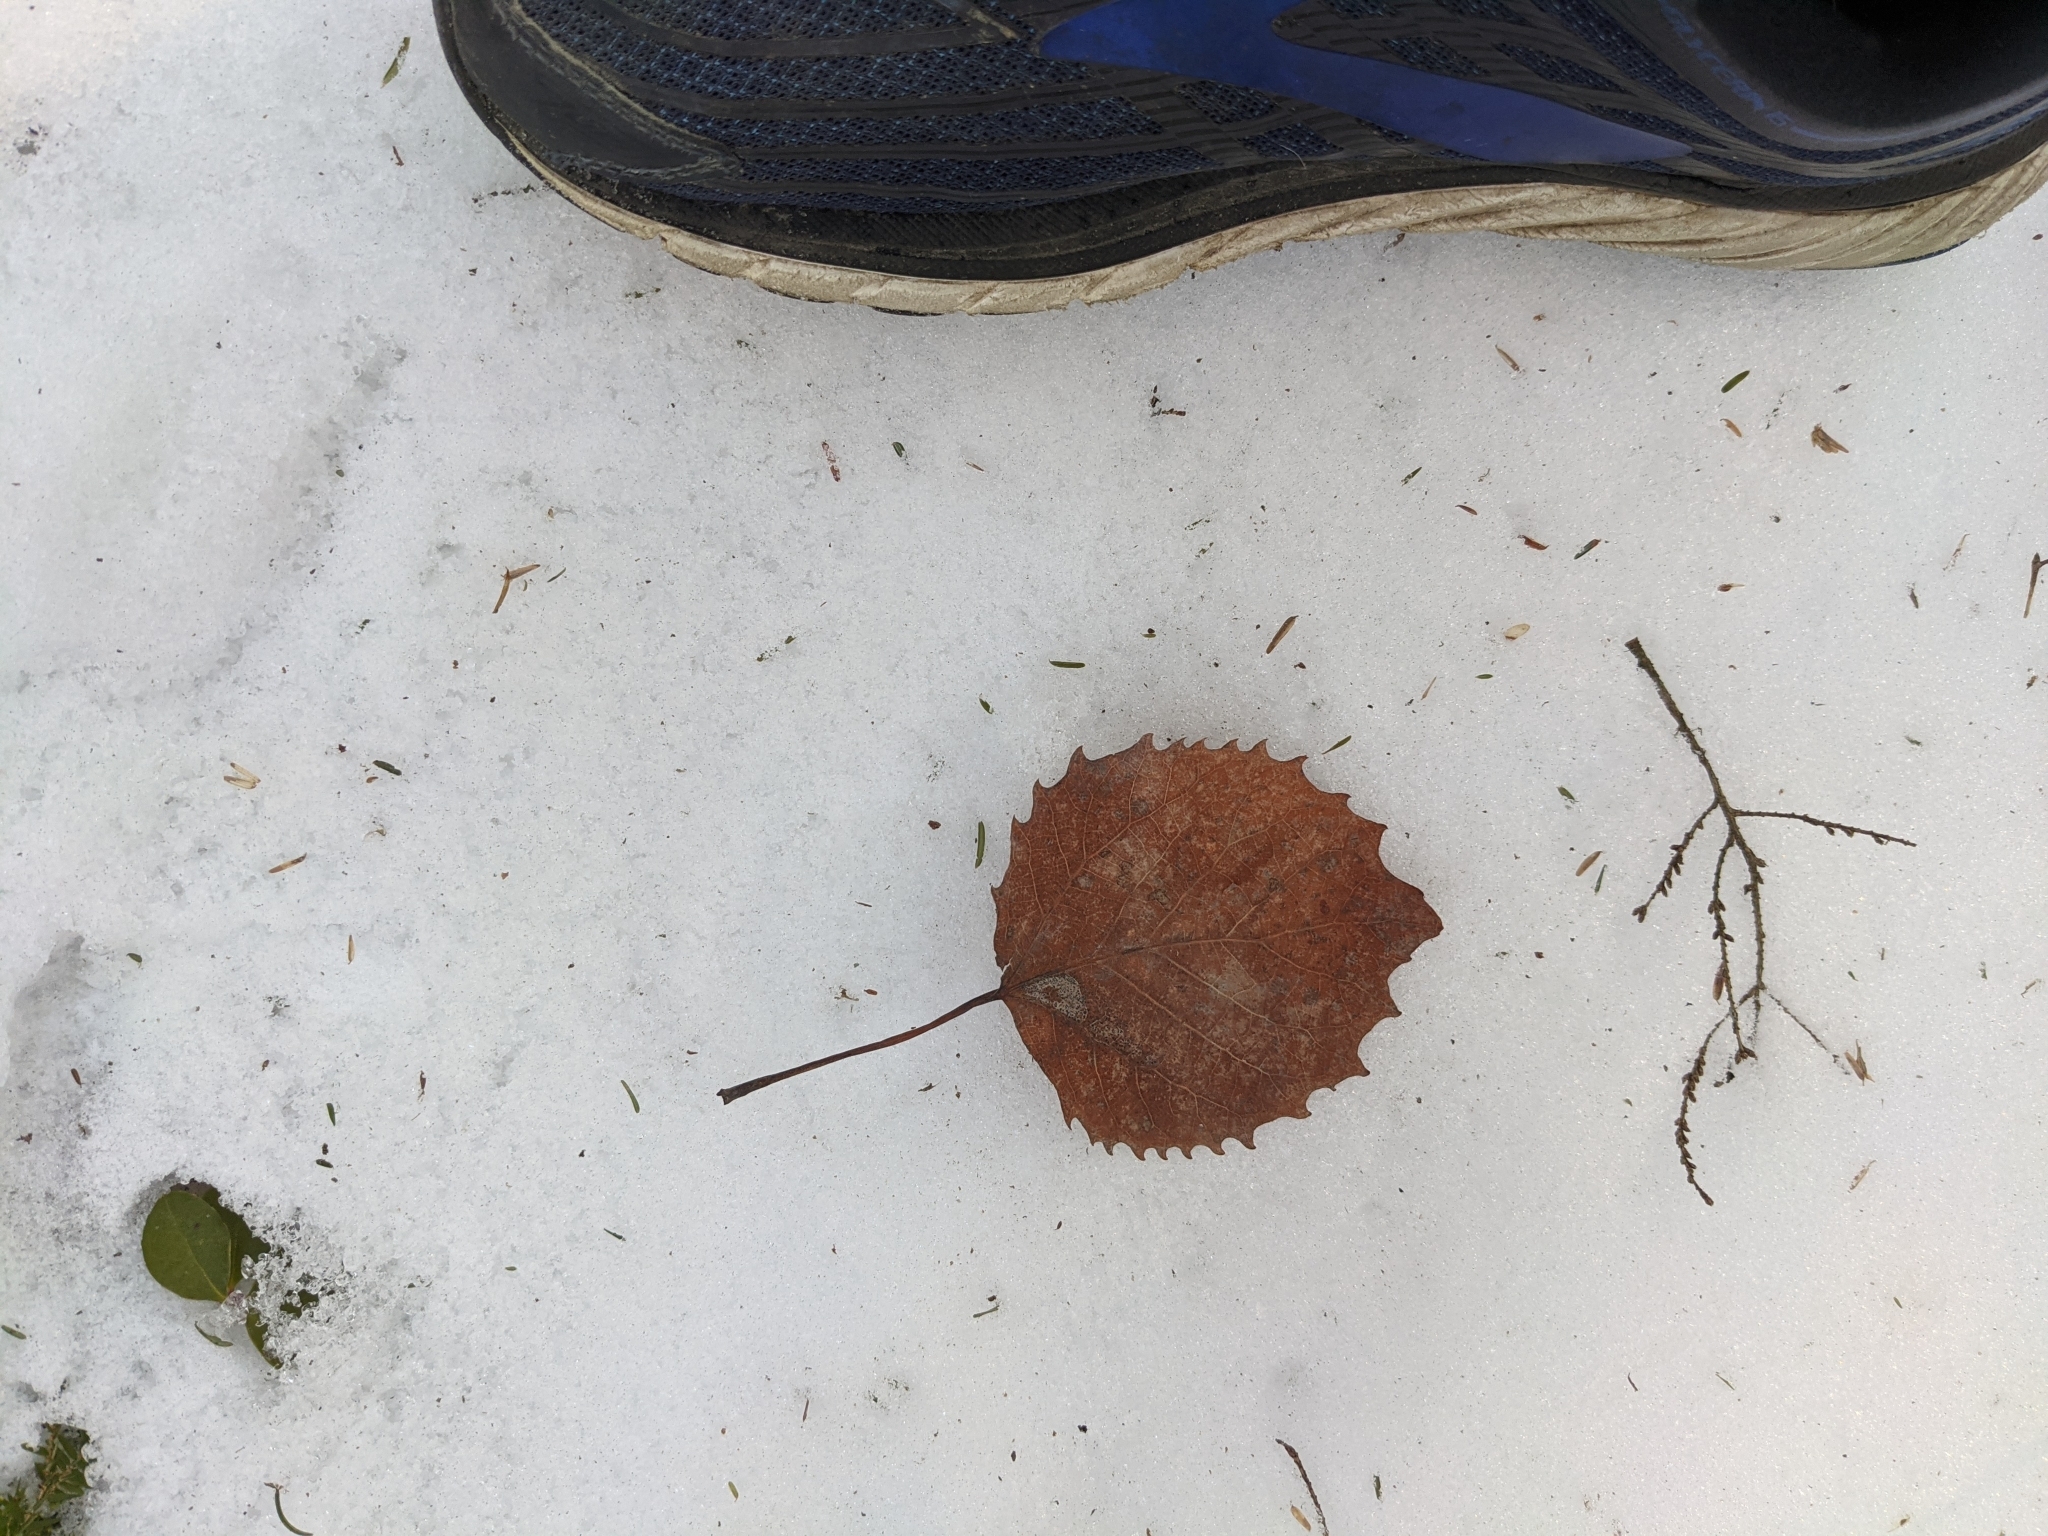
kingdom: Plantae
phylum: Tracheophyta
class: Magnoliopsida
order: Malpighiales
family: Salicaceae
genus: Populus
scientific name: Populus grandidentata
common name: Bigtooth aspen
